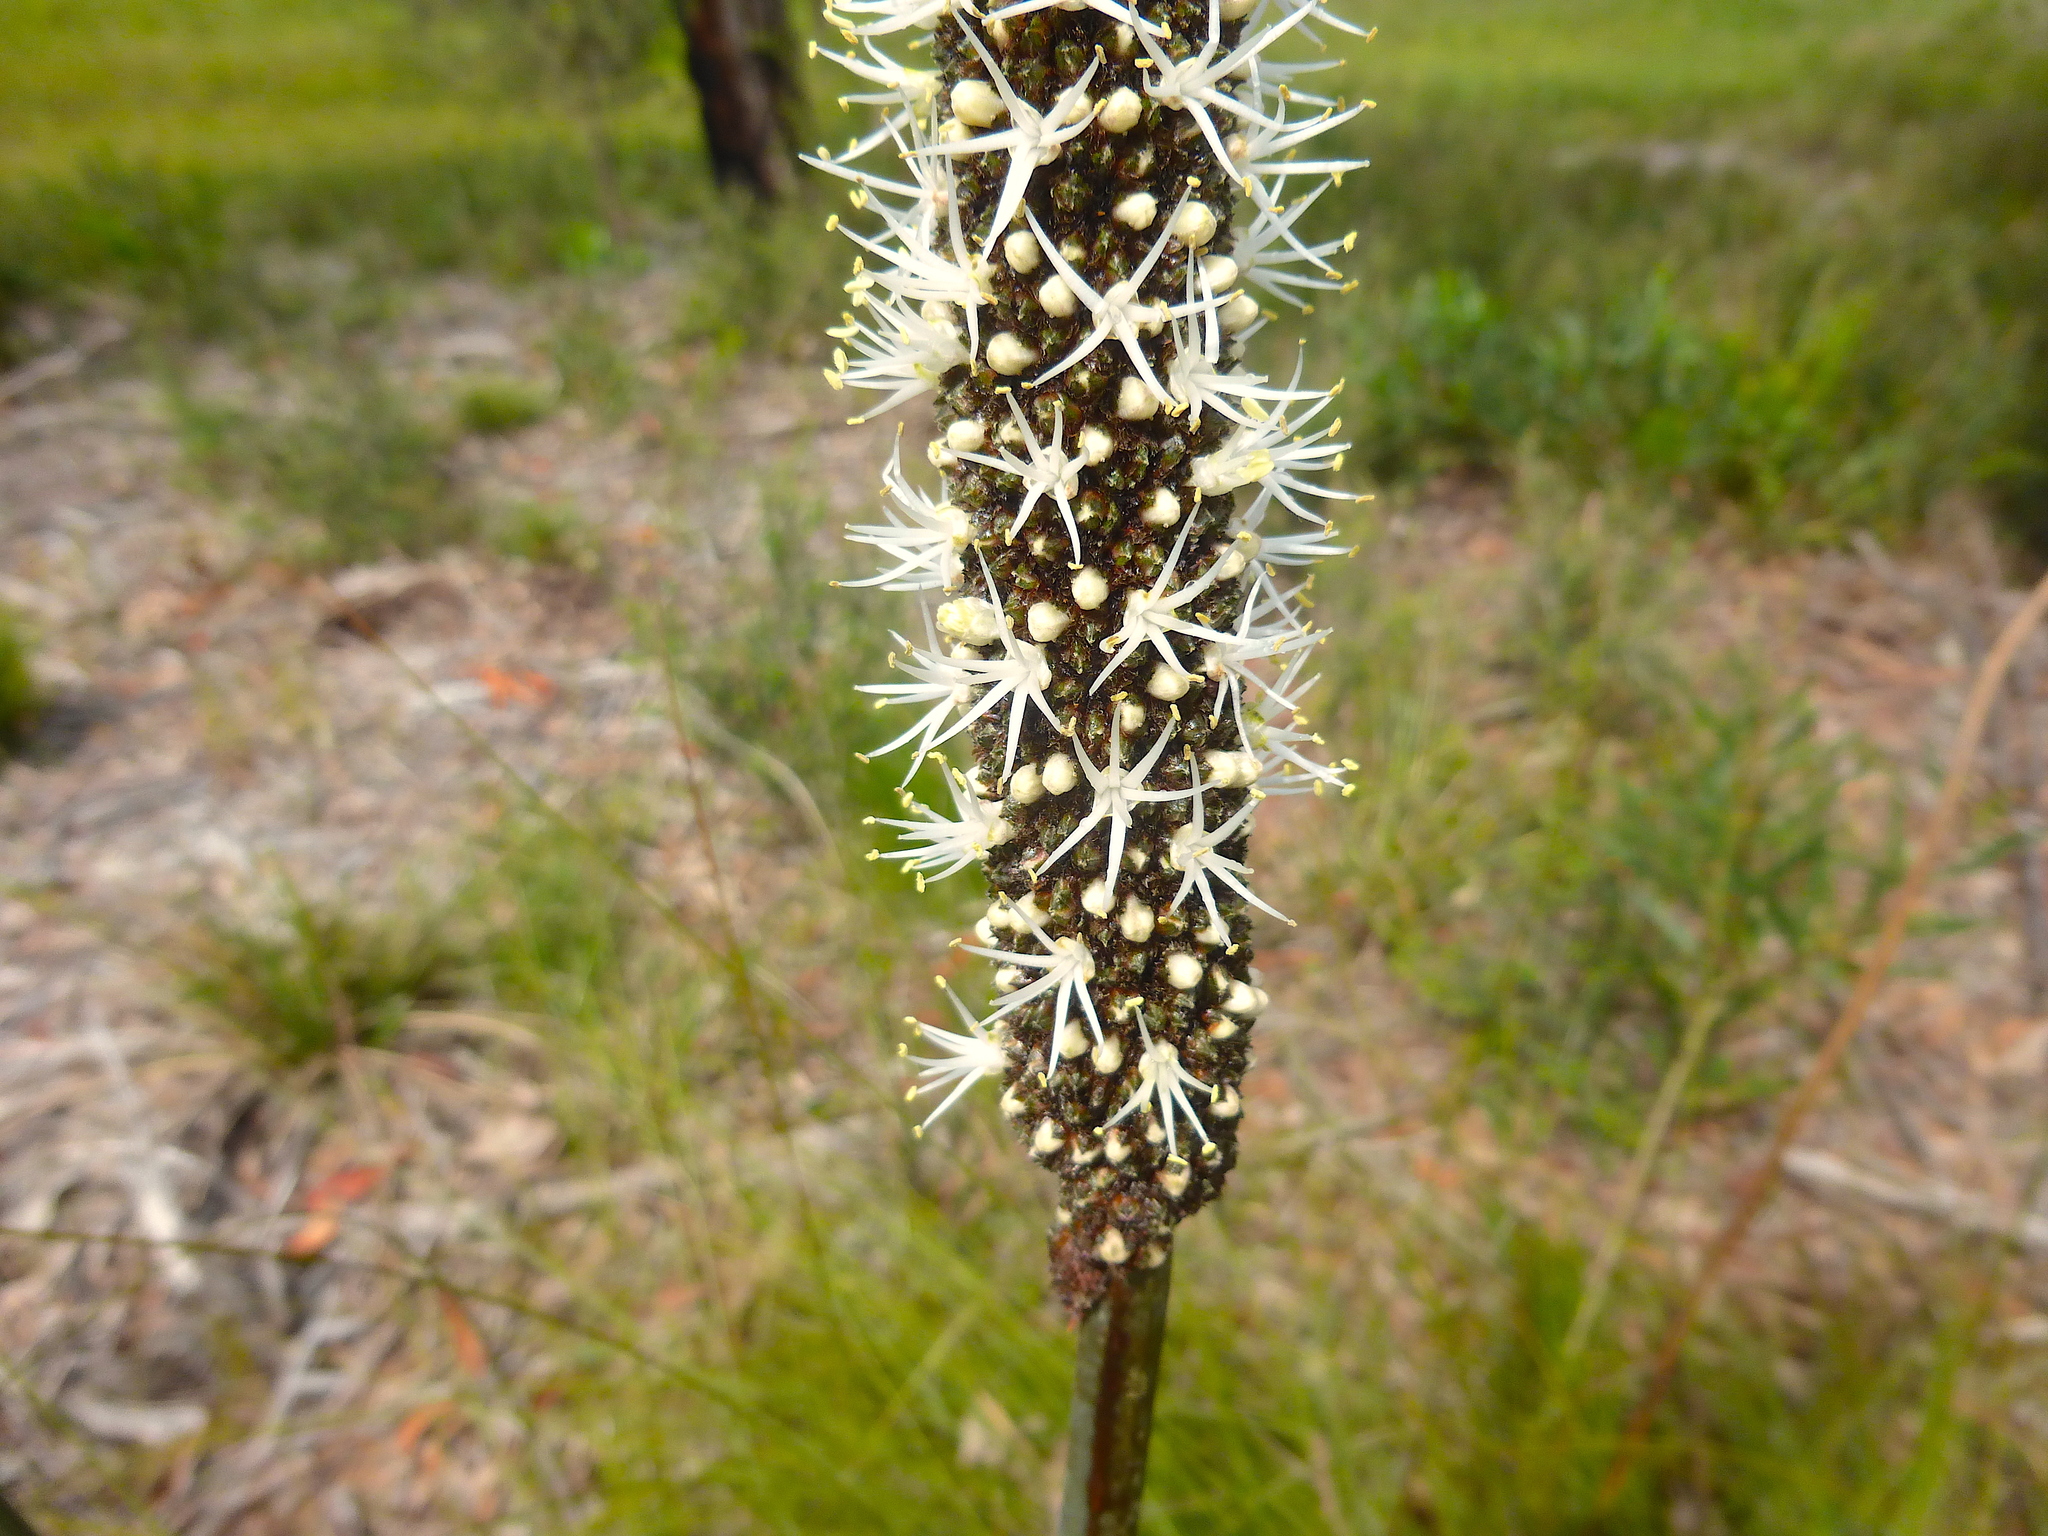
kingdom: Plantae
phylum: Tracheophyta
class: Liliopsida
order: Asparagales
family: Asphodelaceae
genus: Xanthorrhoea
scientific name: Xanthorrhoea minor
